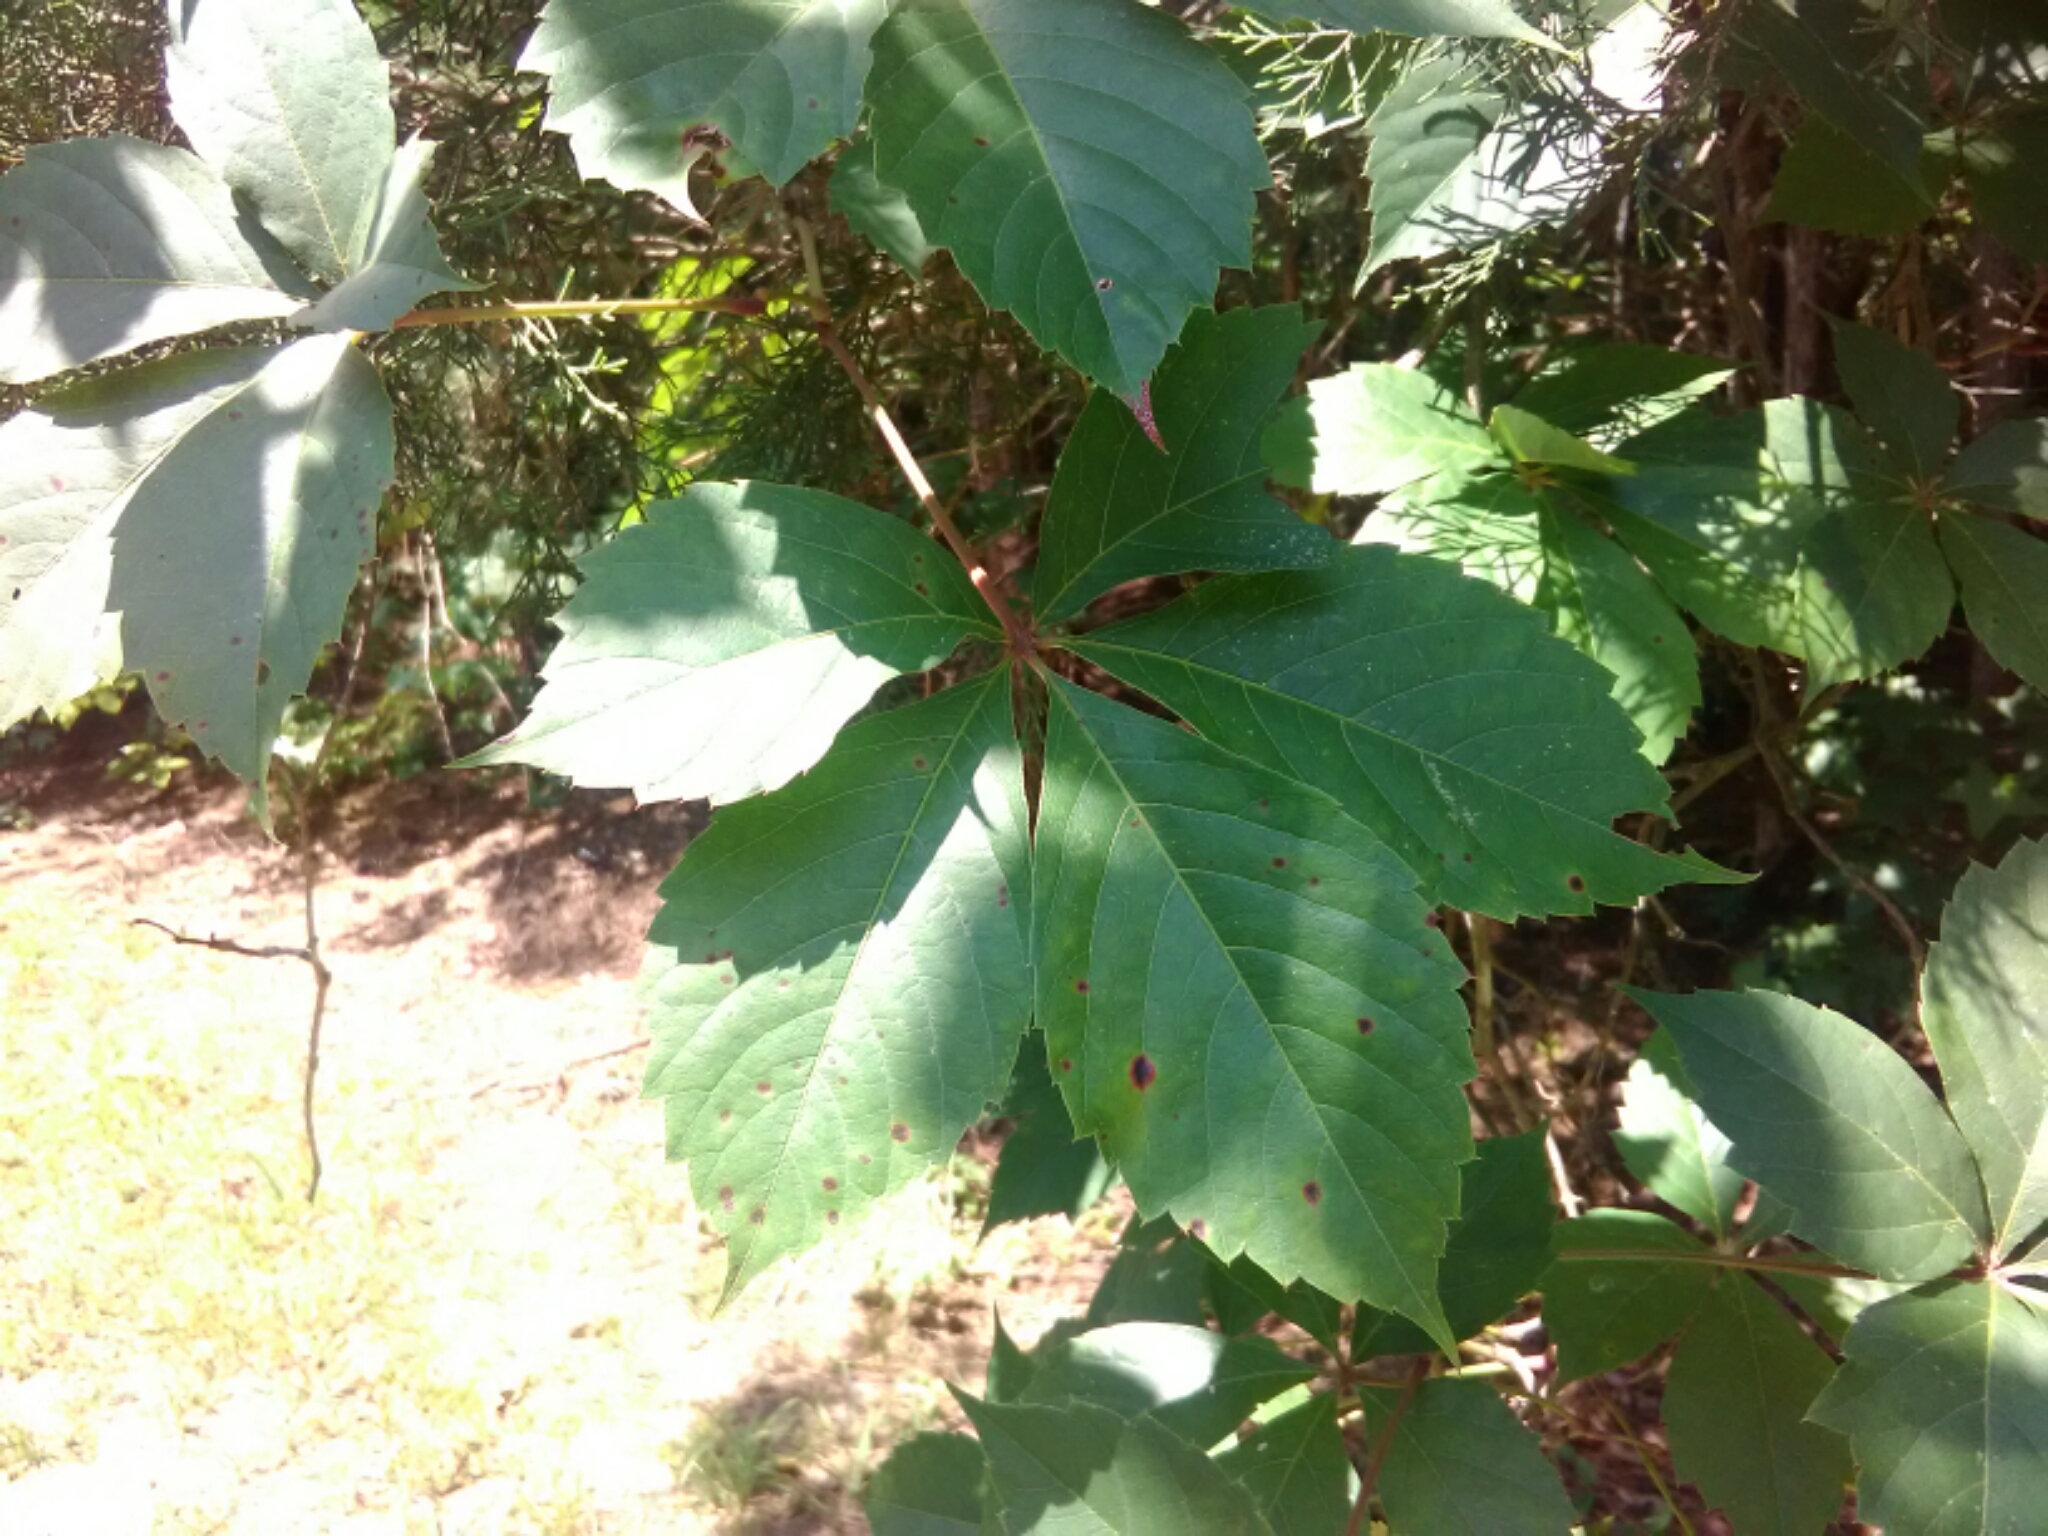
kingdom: Plantae
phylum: Tracheophyta
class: Magnoliopsida
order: Vitales
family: Vitaceae
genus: Parthenocissus
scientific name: Parthenocissus quinquefolia
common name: Virginia-creeper
